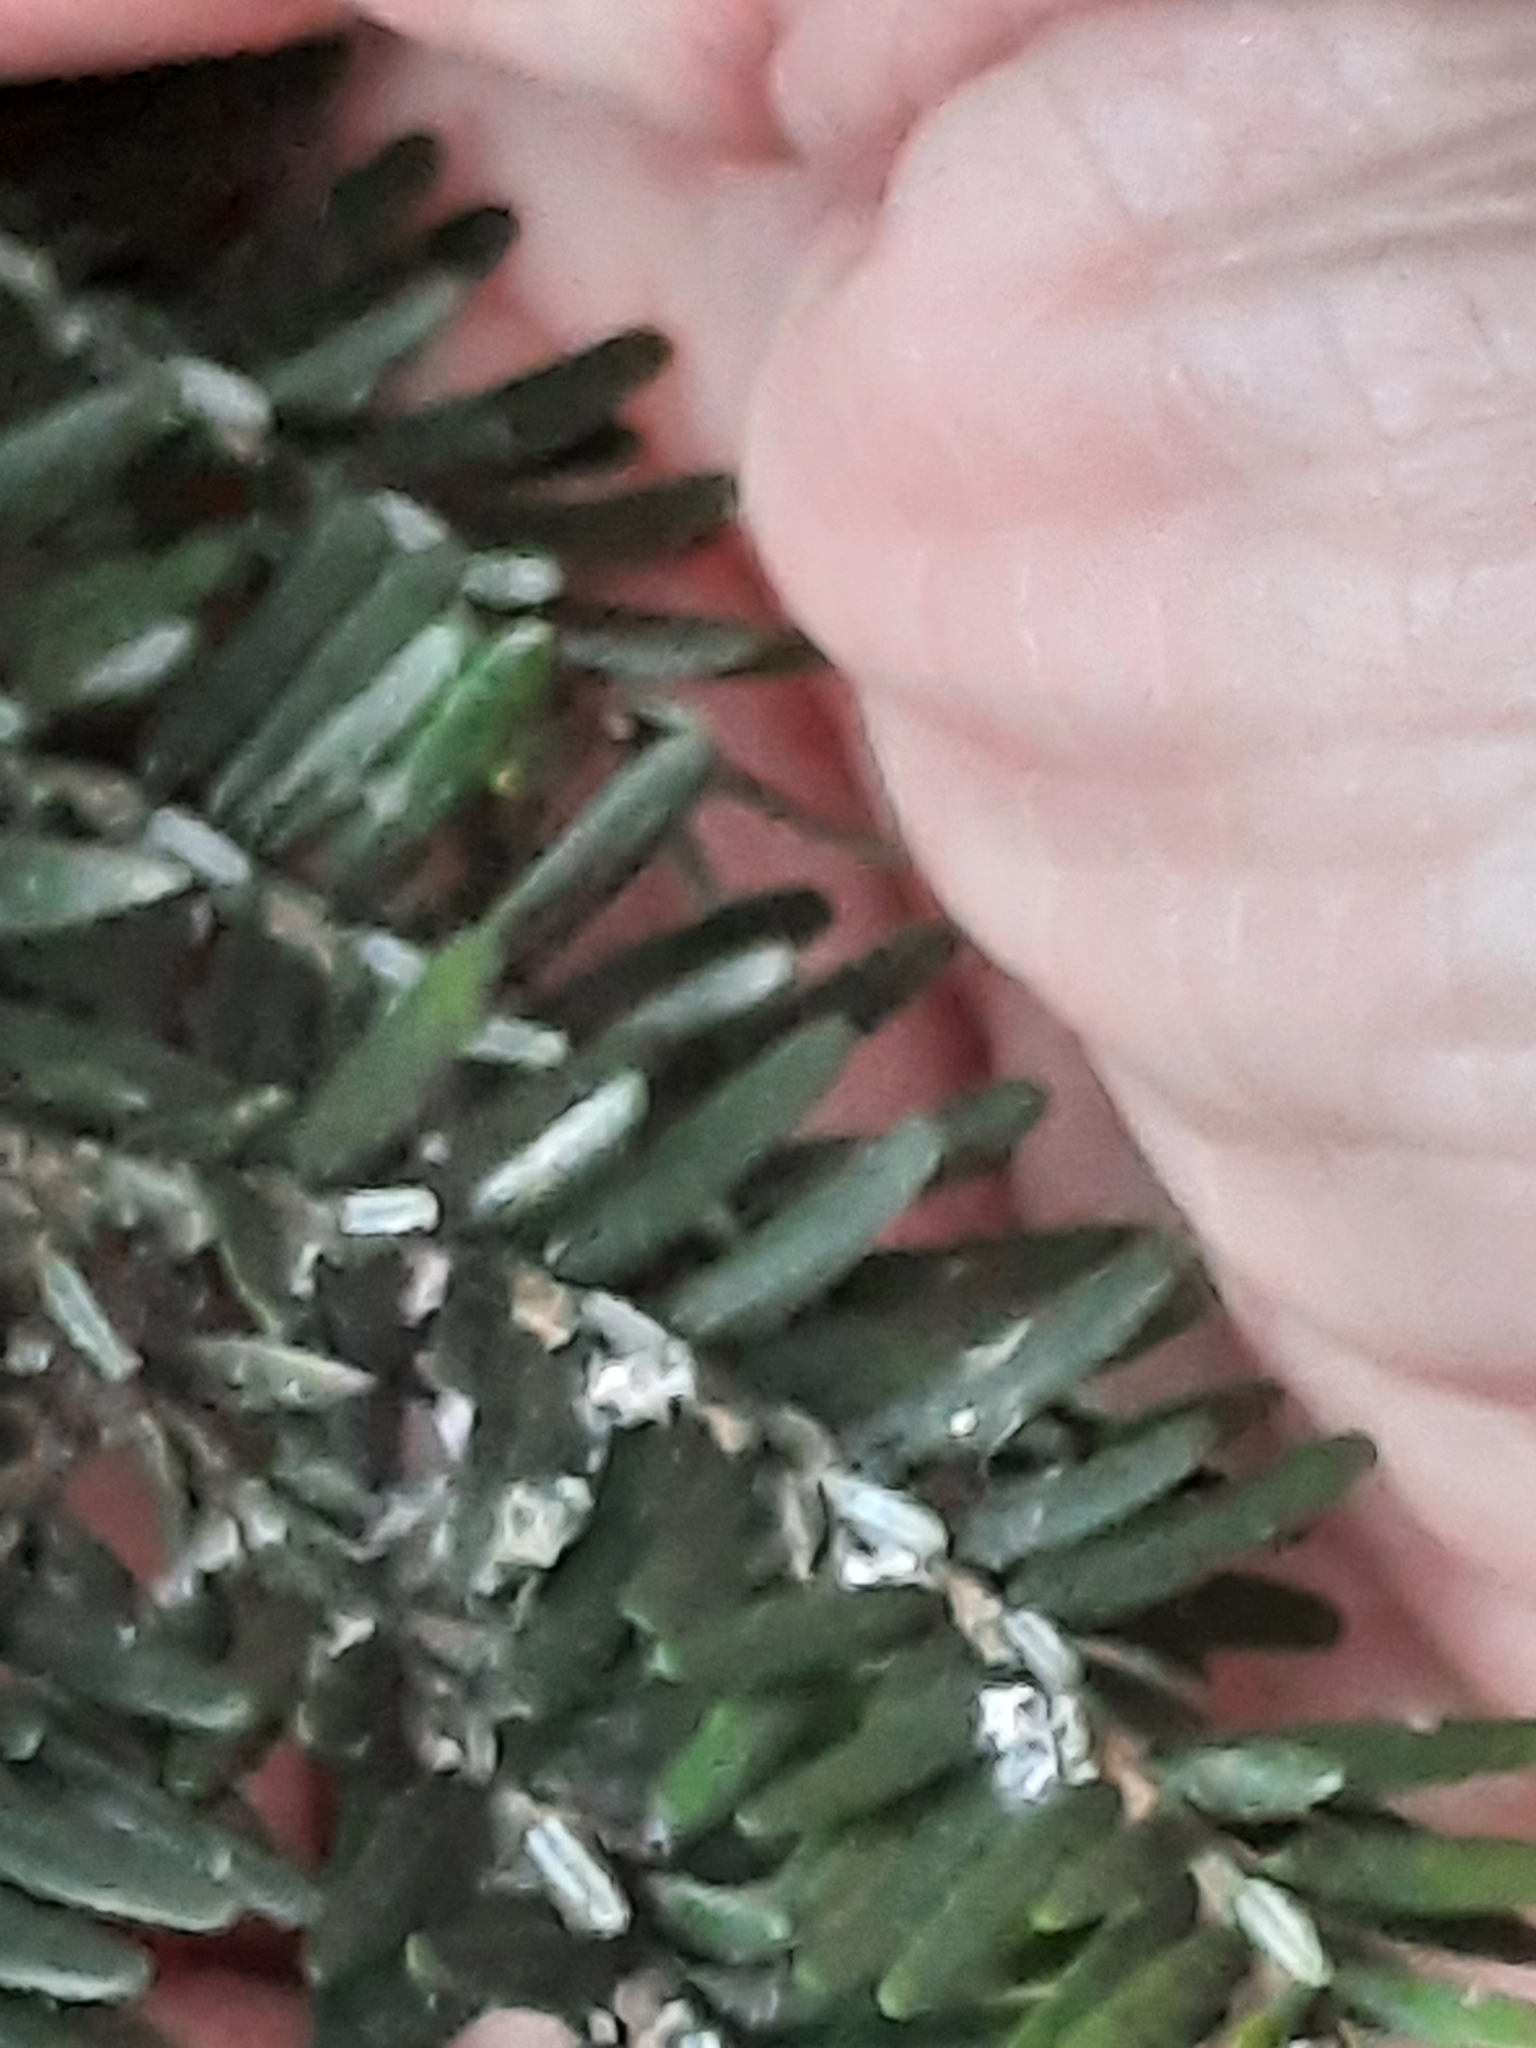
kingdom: Animalia
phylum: Arthropoda
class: Insecta
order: Hemiptera
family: Adelgidae
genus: Adelges
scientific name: Adelges tsugae
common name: Hemlock woolly adelgid
